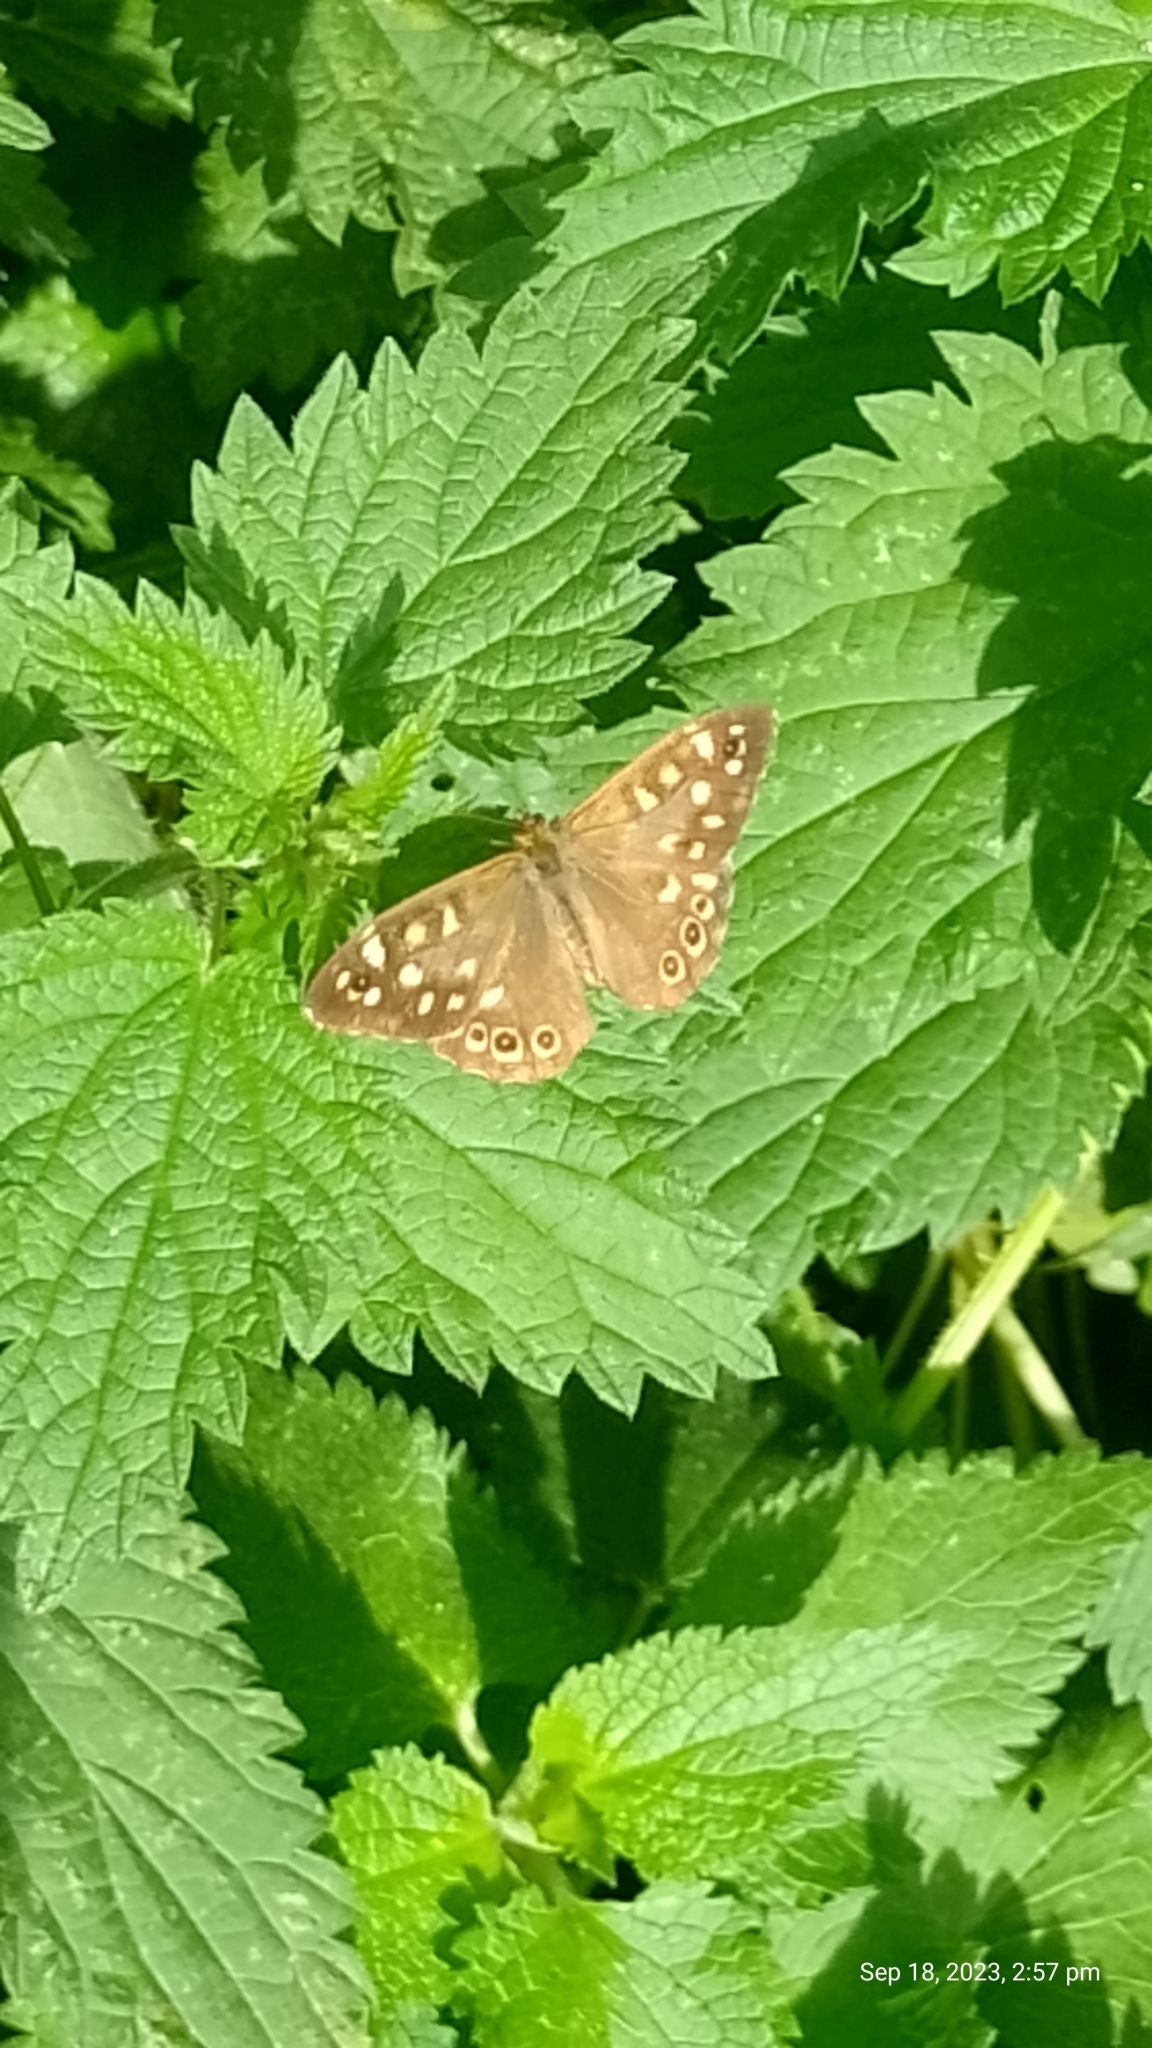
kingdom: Animalia
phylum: Arthropoda
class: Insecta
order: Lepidoptera
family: Nymphalidae
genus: Pararge
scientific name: Pararge aegeria
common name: Speckled wood
